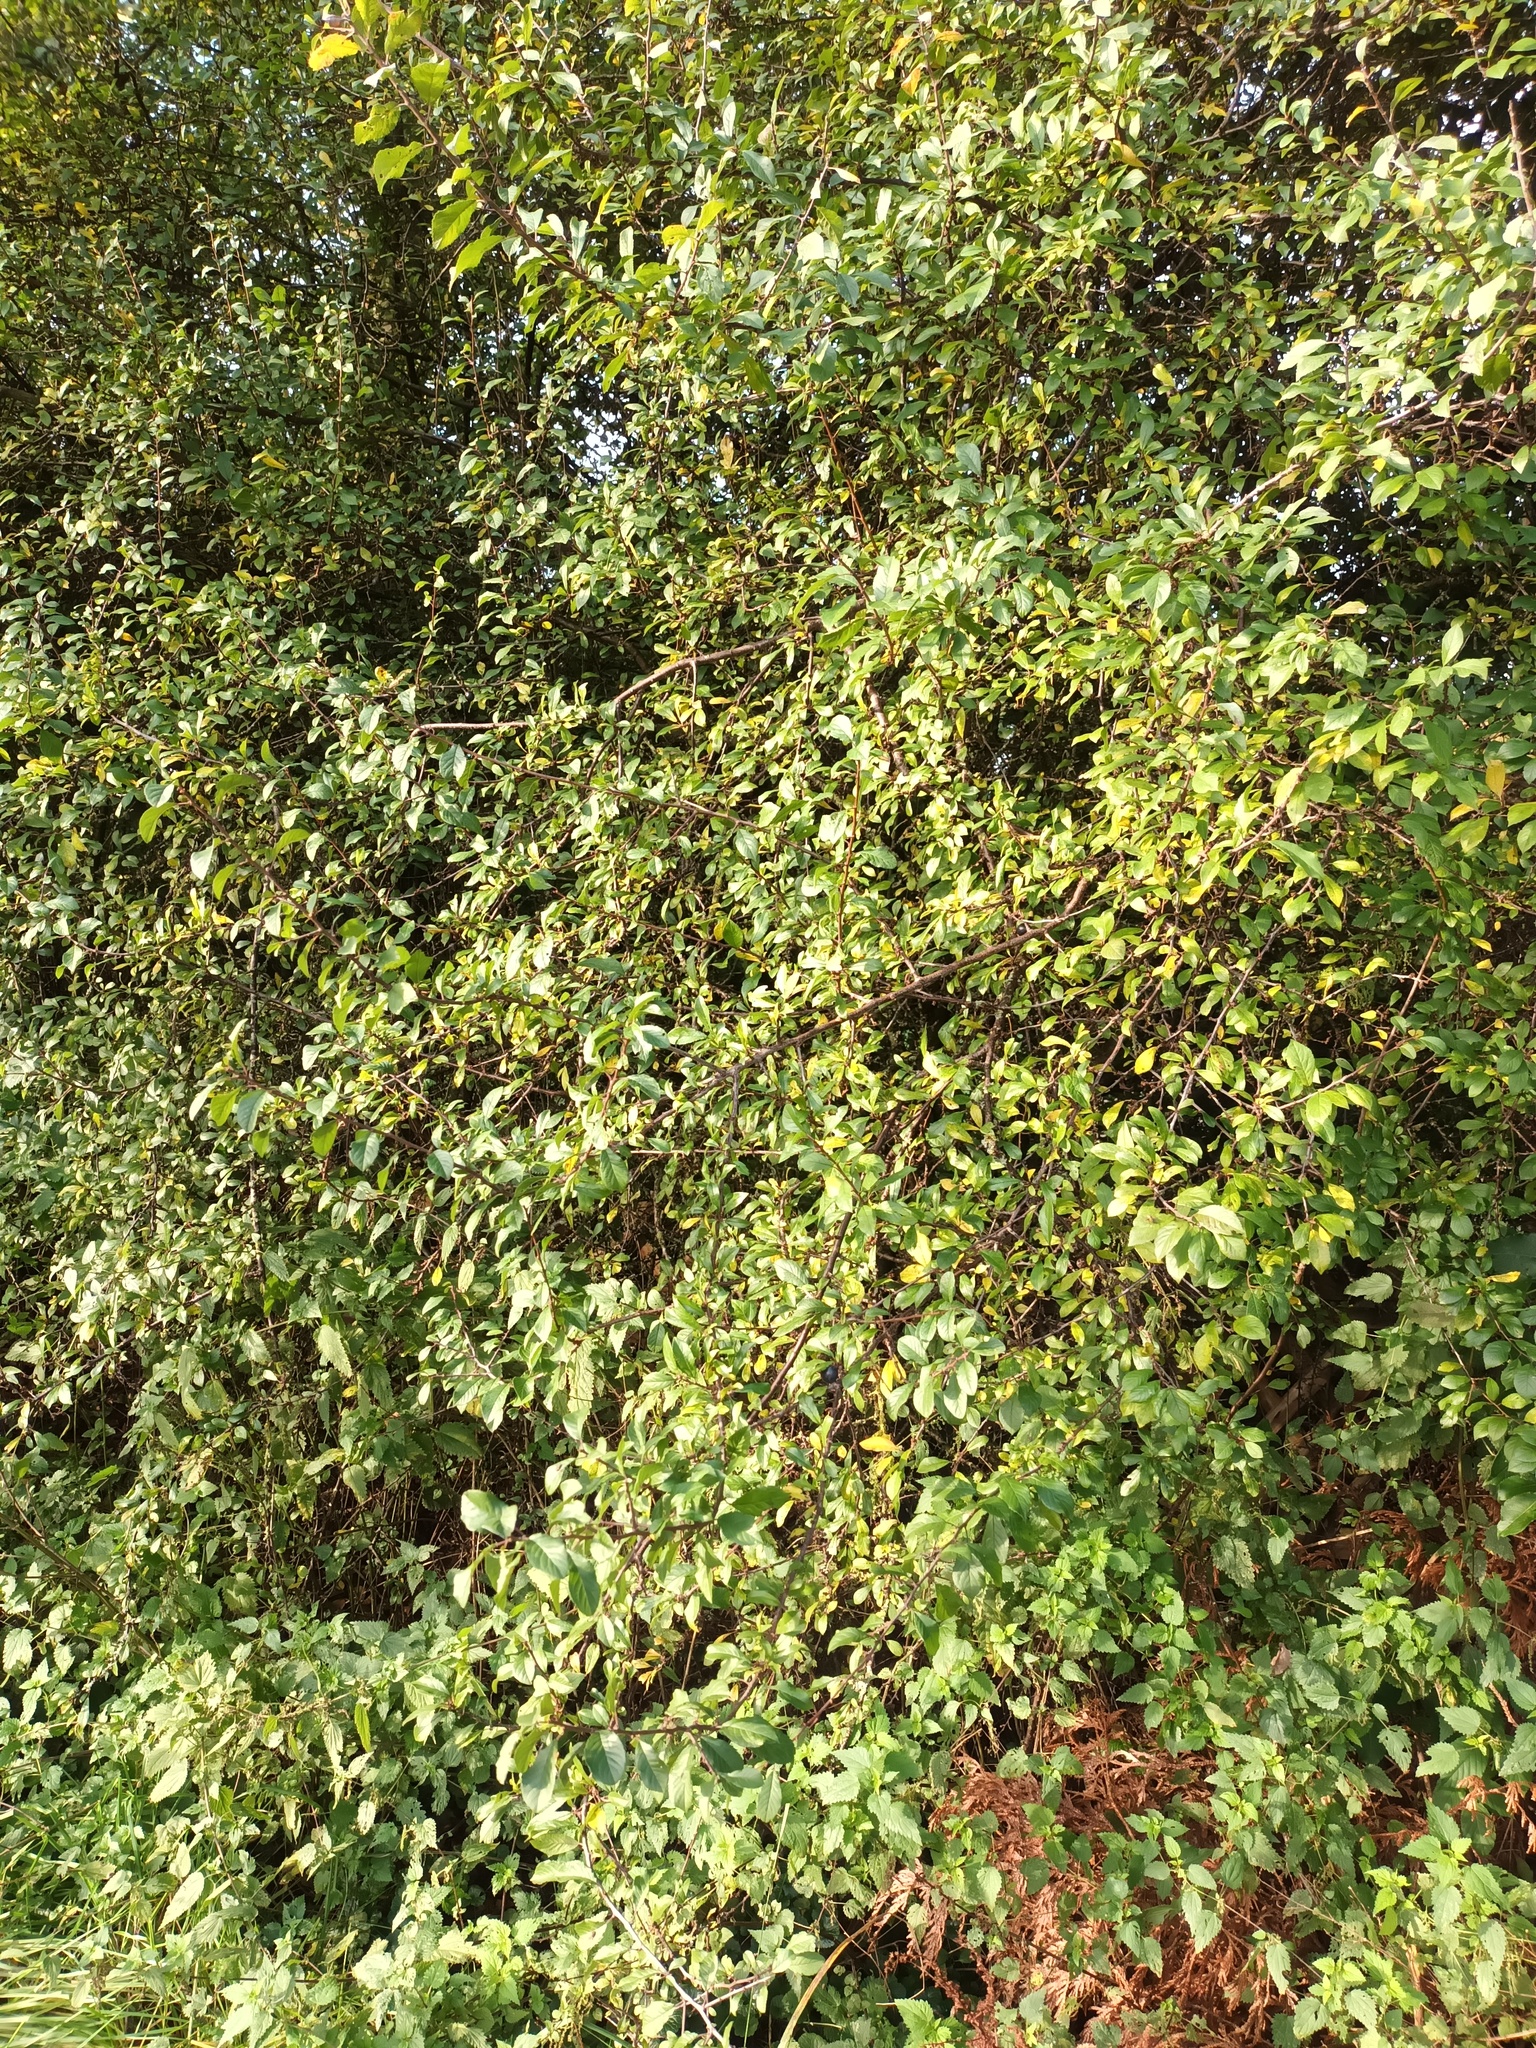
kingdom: Plantae
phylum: Tracheophyta
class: Magnoliopsida
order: Rosales
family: Rosaceae
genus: Prunus
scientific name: Prunus spinosa
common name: Blackthorn
